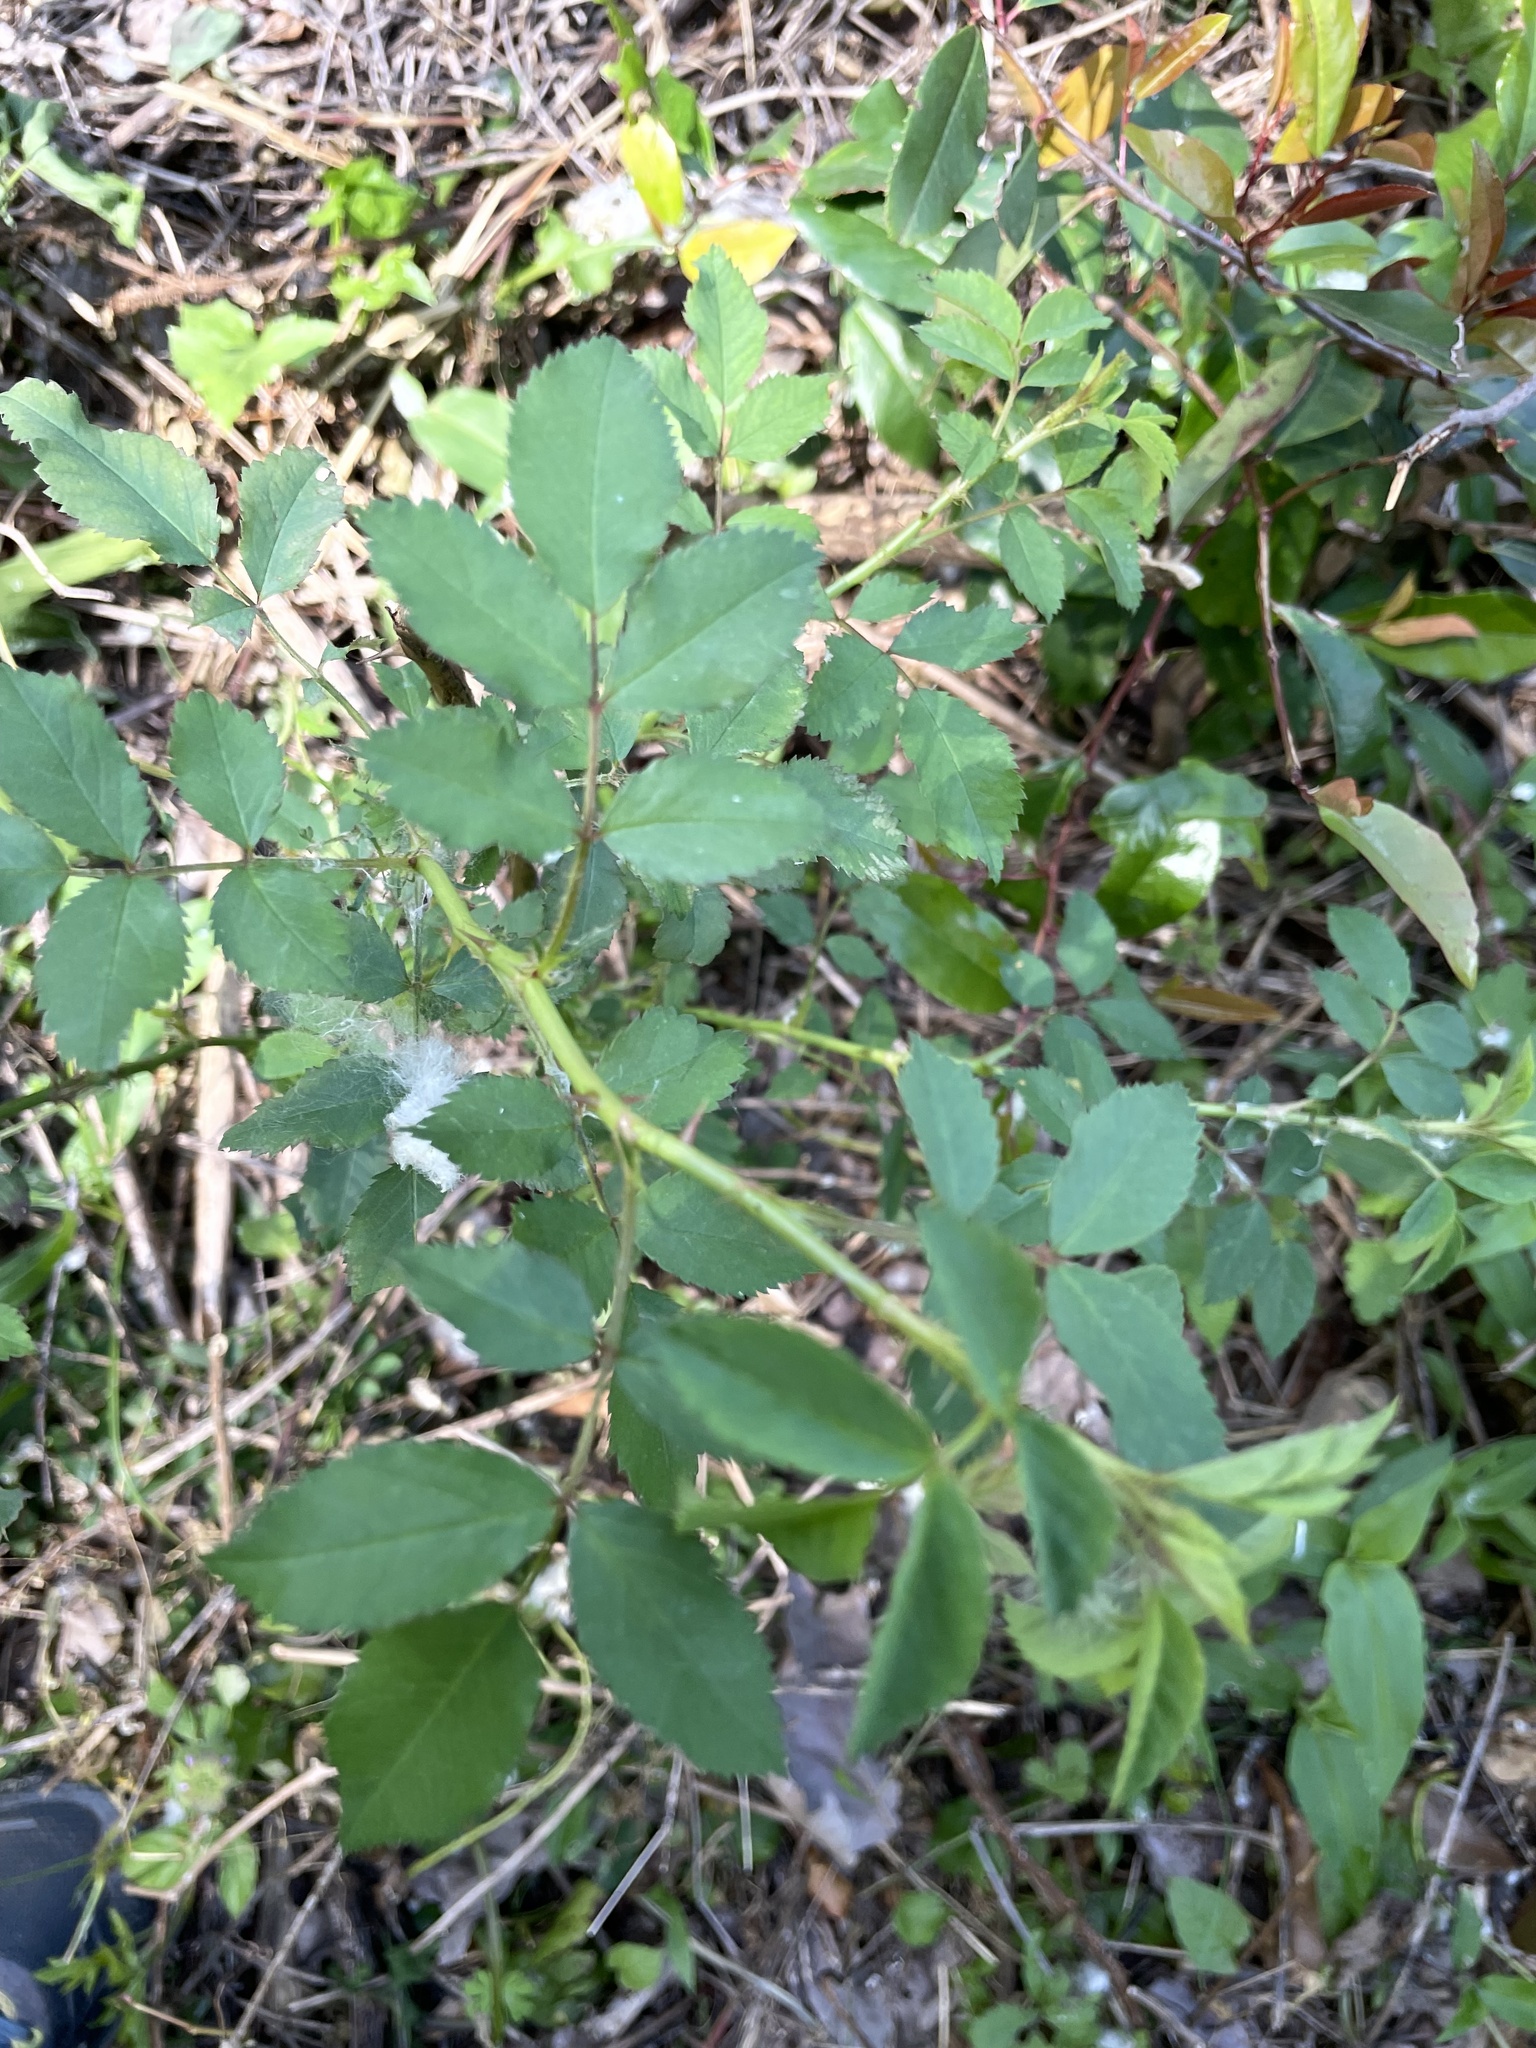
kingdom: Plantae
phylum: Tracheophyta
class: Magnoliopsida
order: Rosales
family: Rosaceae
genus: Rosa
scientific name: Rosa multiflora
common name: Multiflora rose
